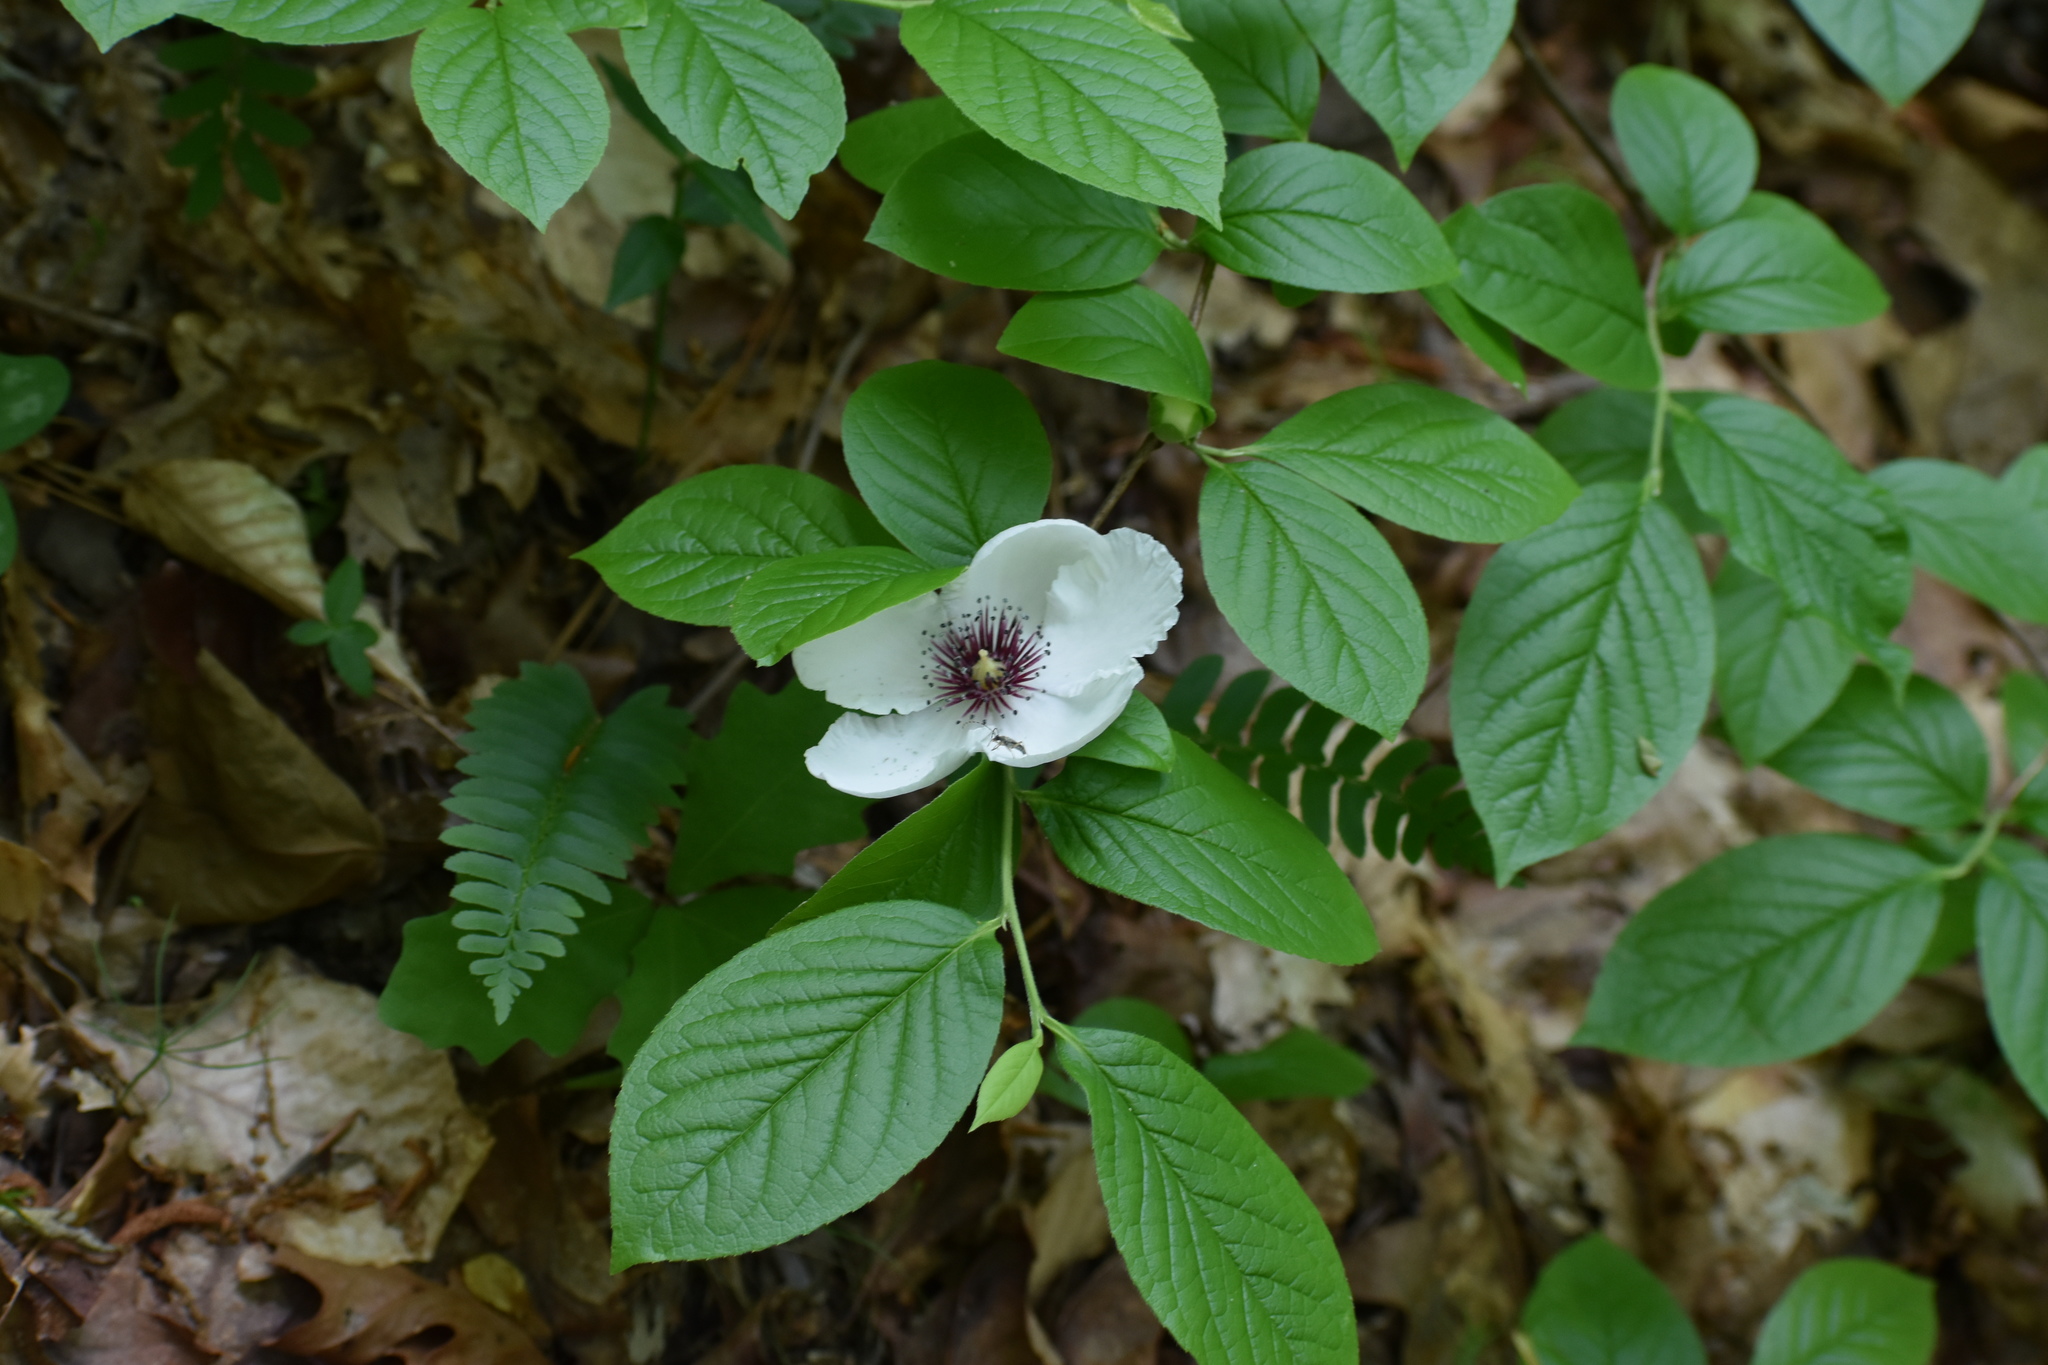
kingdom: Plantae
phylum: Tracheophyta
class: Magnoliopsida
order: Ericales
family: Theaceae
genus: Stewartia
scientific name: Stewartia malacodendron
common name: Virginia stewartia
